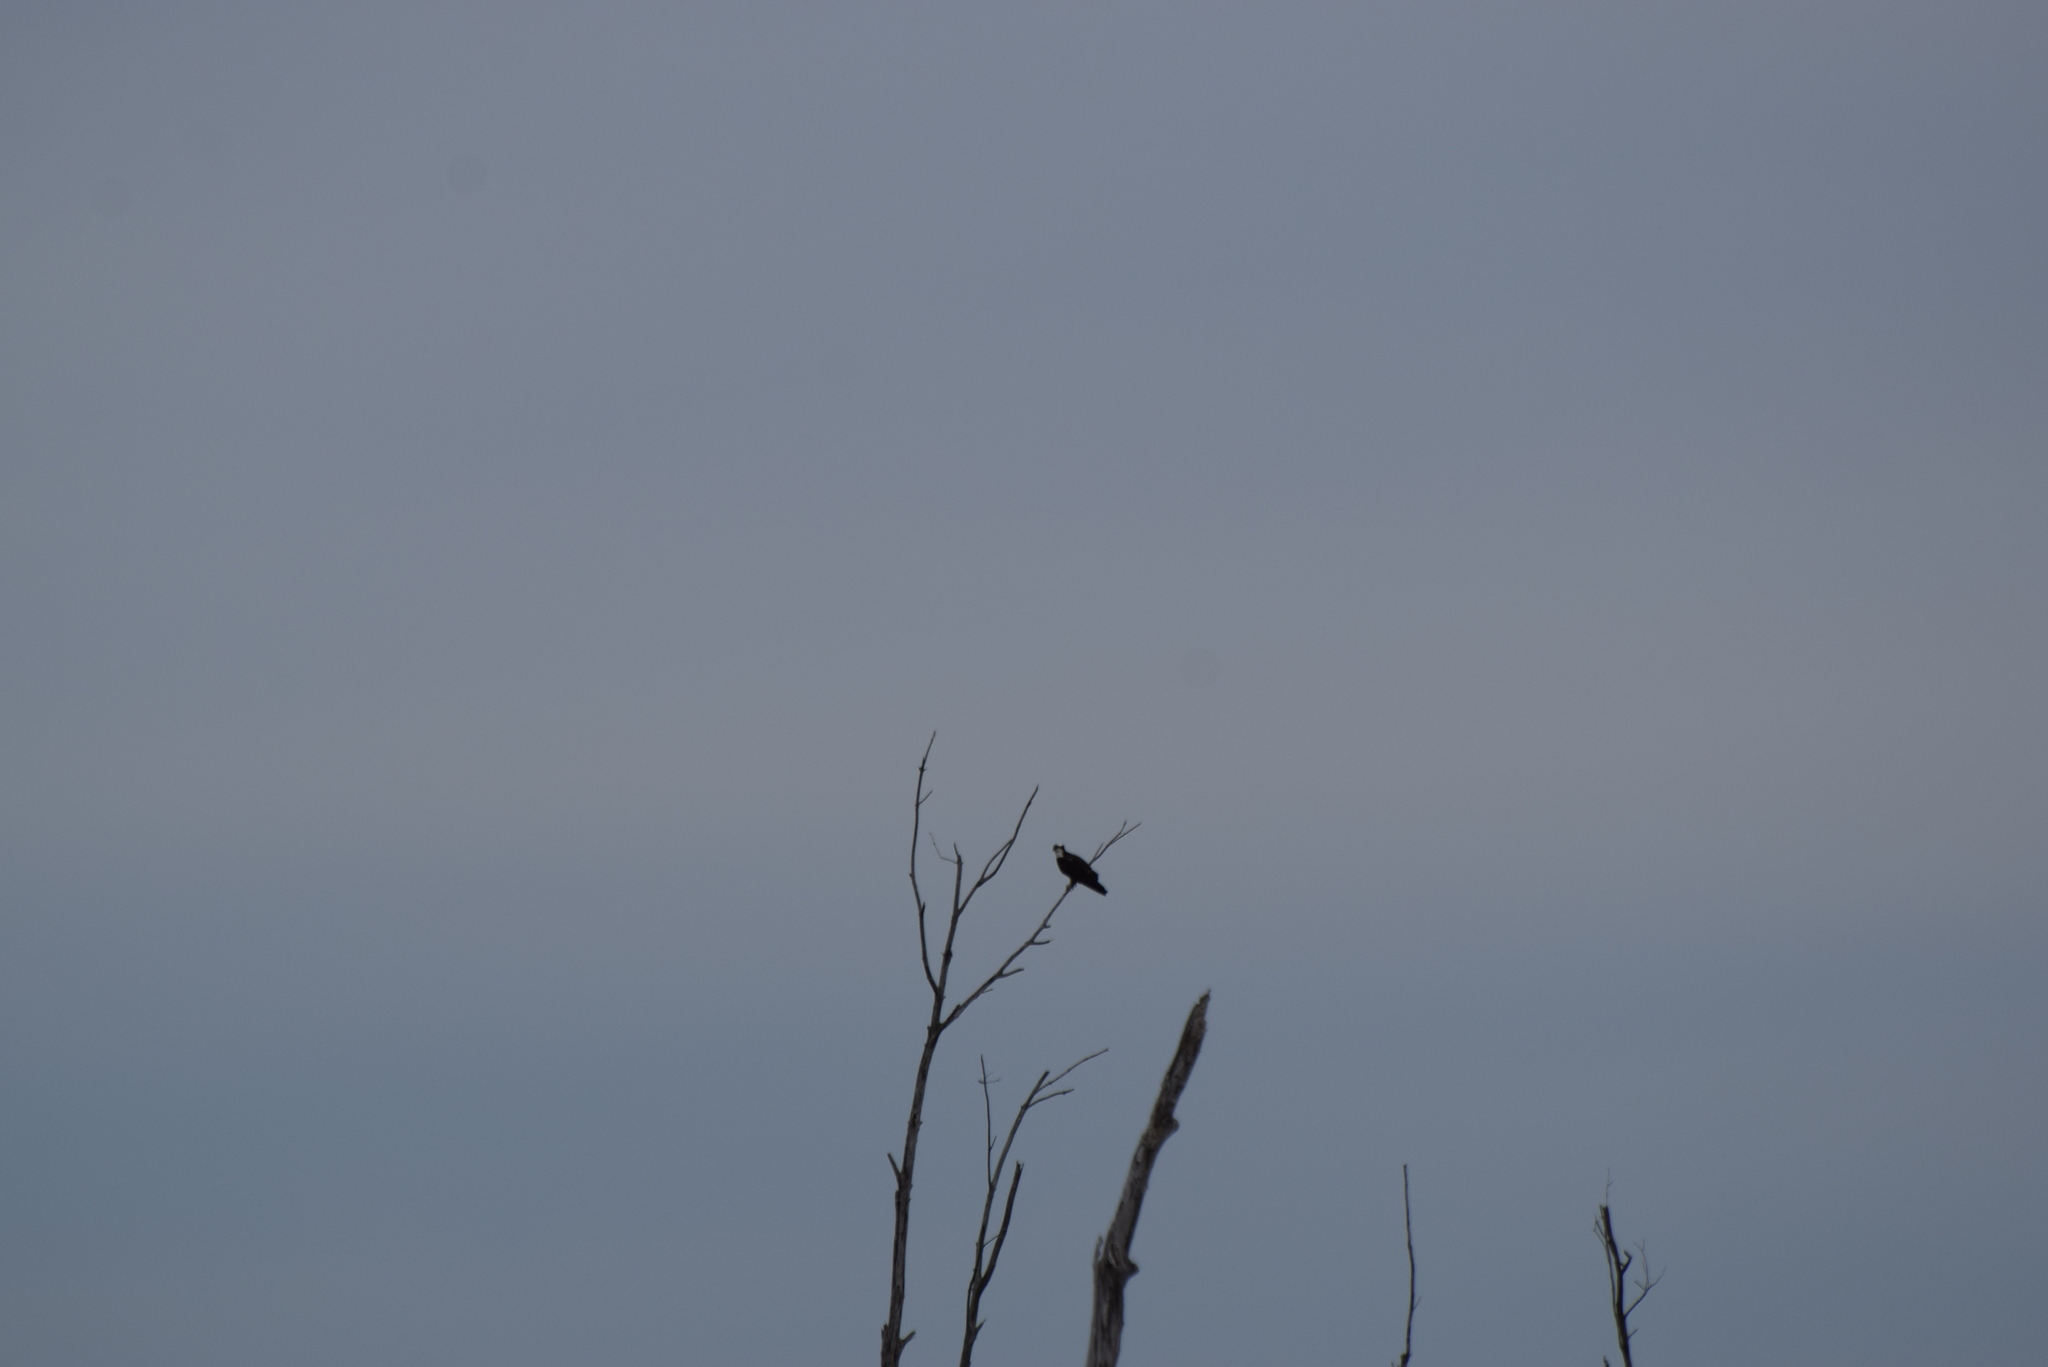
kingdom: Animalia
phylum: Chordata
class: Aves
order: Accipitriformes
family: Pandionidae
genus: Pandion
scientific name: Pandion haliaetus
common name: Osprey
